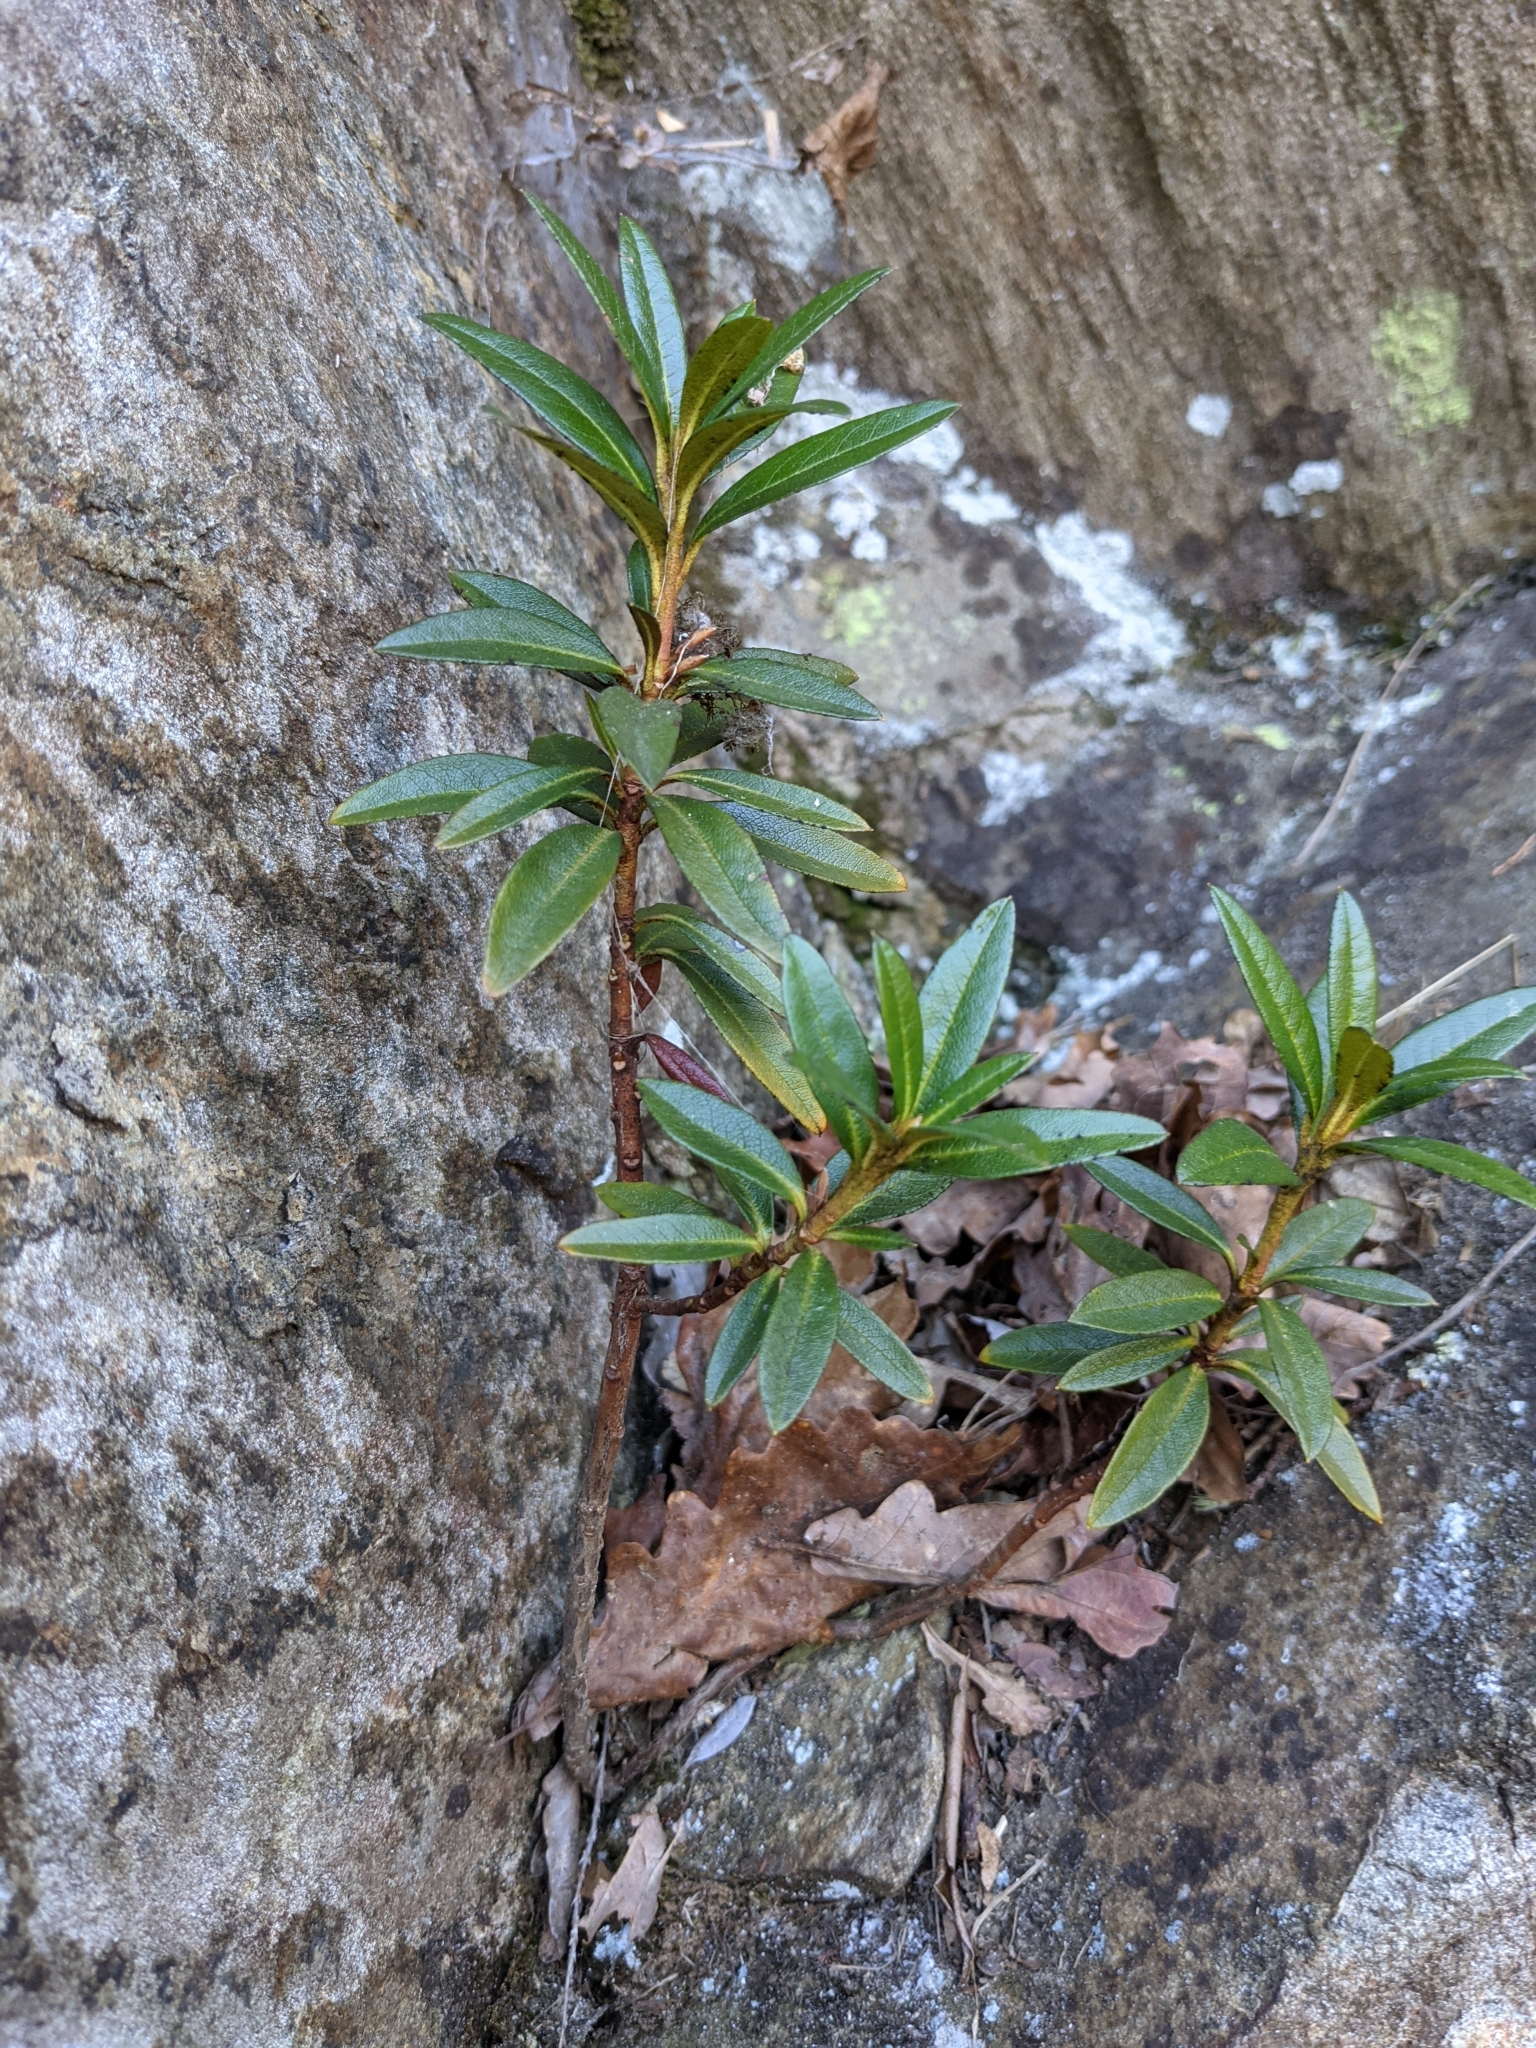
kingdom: Plantae
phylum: Tracheophyta
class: Magnoliopsida
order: Ericales
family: Ericaceae
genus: Rhododendron
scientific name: Rhododendron ferrugineum
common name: Alpenrose
